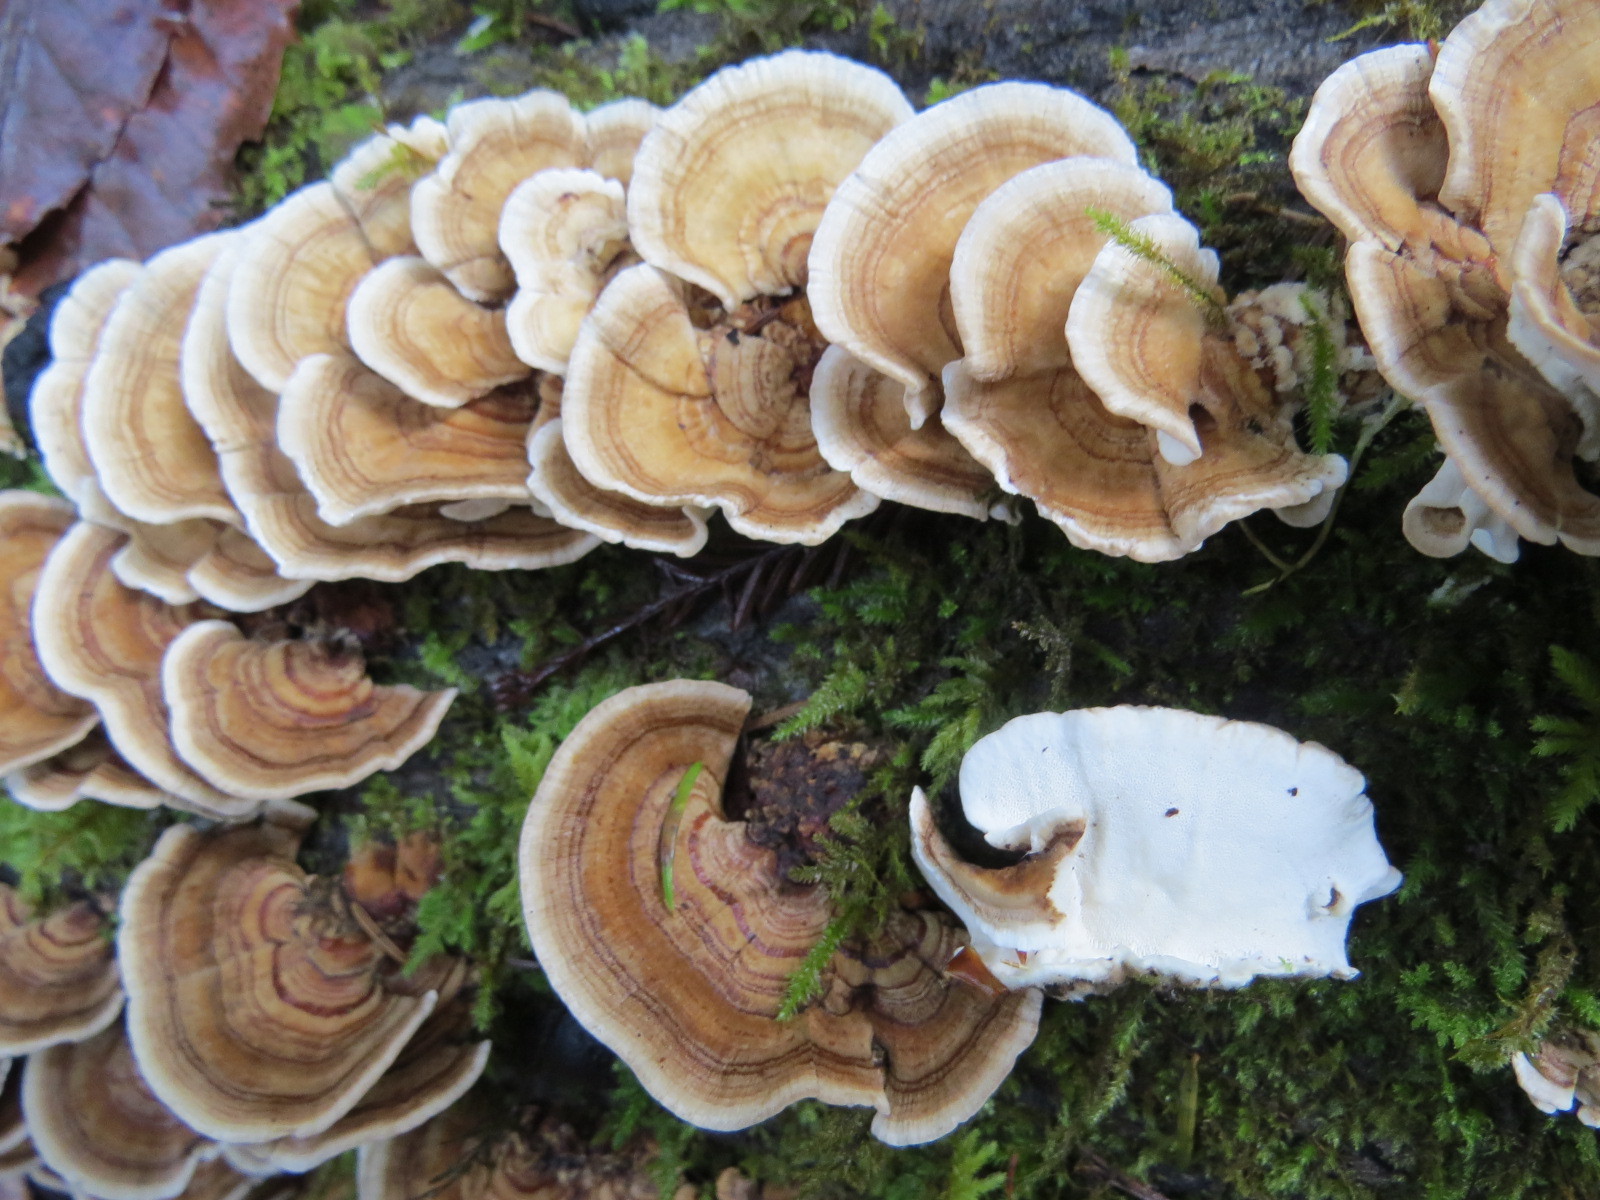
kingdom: Fungi
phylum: Basidiomycota
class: Agaricomycetes
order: Polyporales
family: Polyporaceae
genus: Trametes
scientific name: Trametes versicolor
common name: Turkeytail
